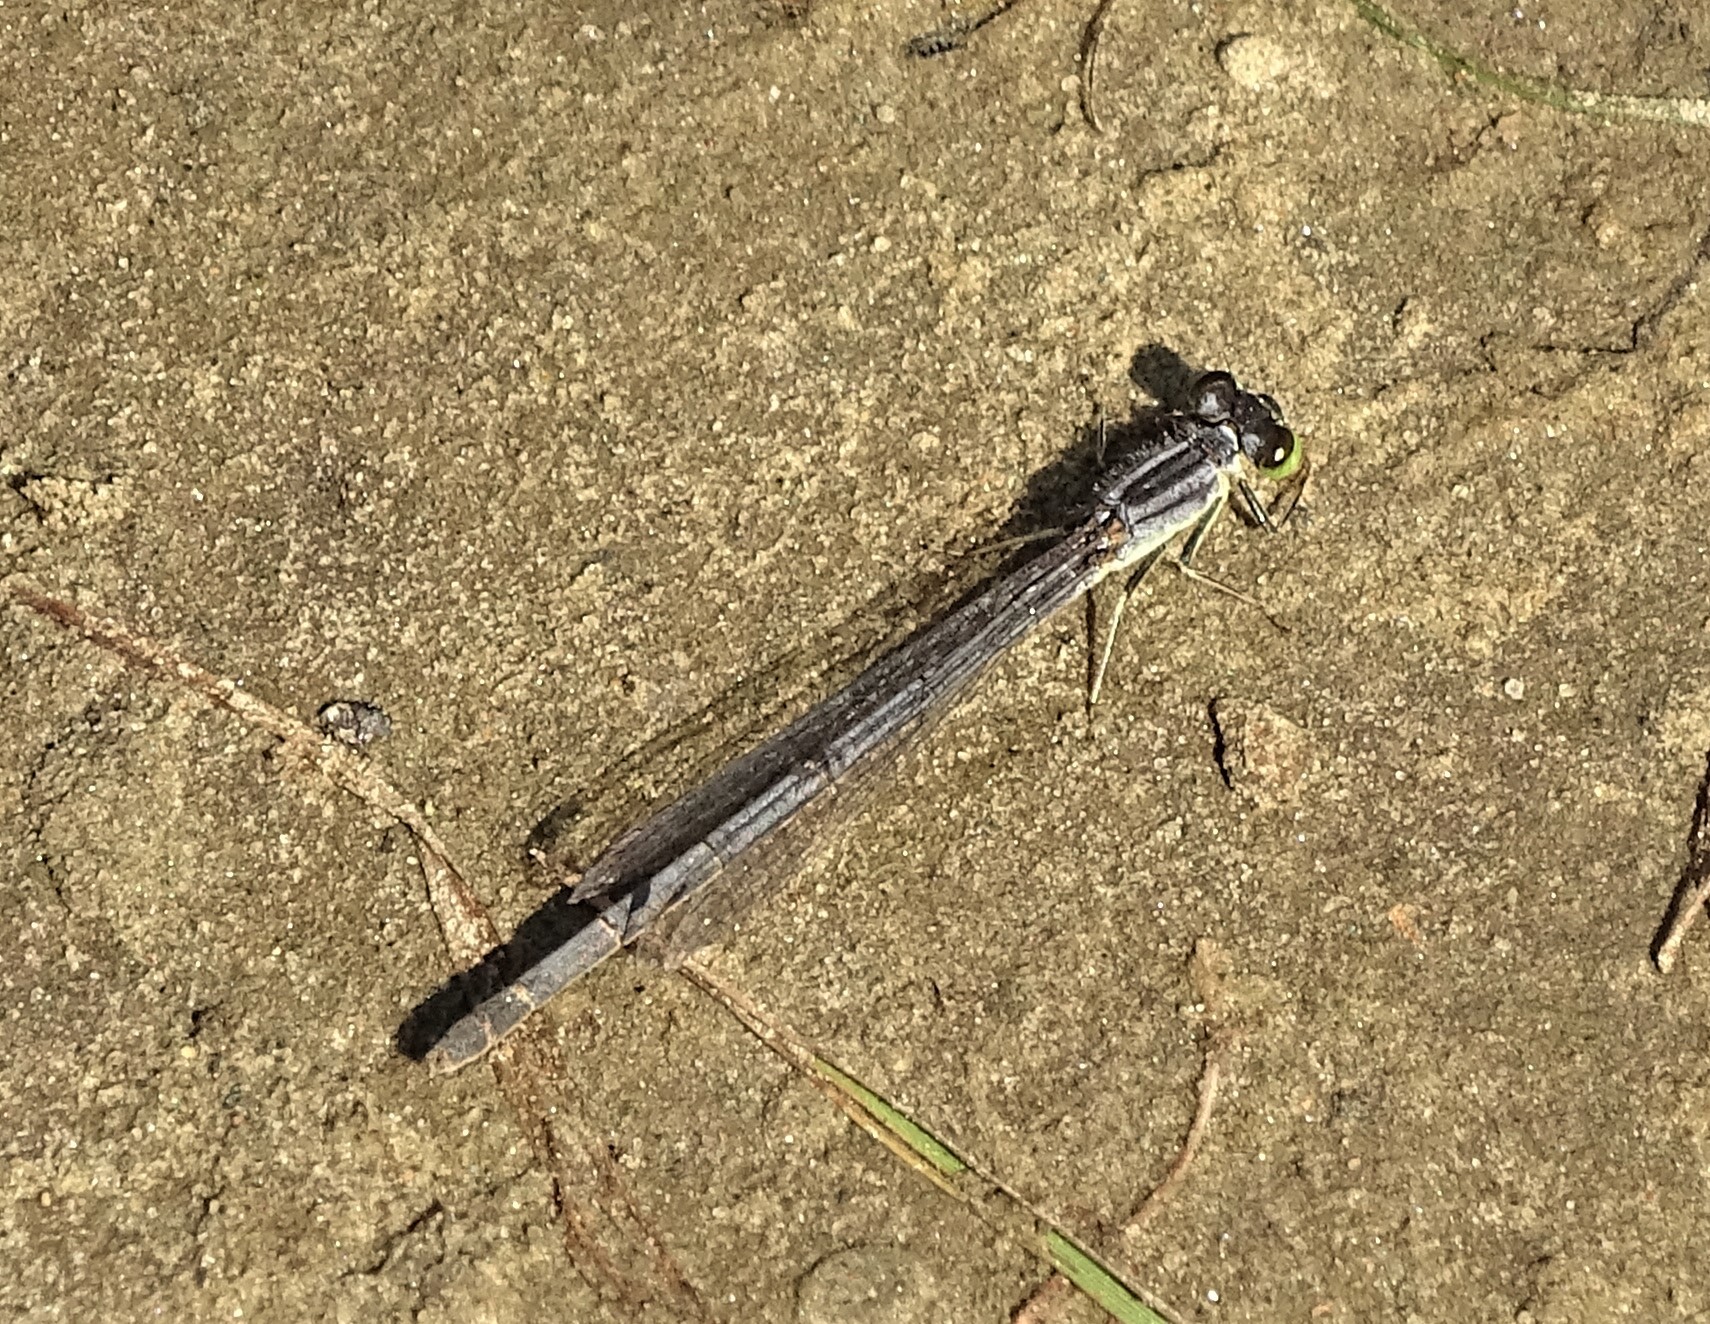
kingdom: Animalia
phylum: Arthropoda
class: Insecta
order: Odonata
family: Coenagrionidae
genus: Ischnura
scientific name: Ischnura verticalis
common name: Eastern forktail
